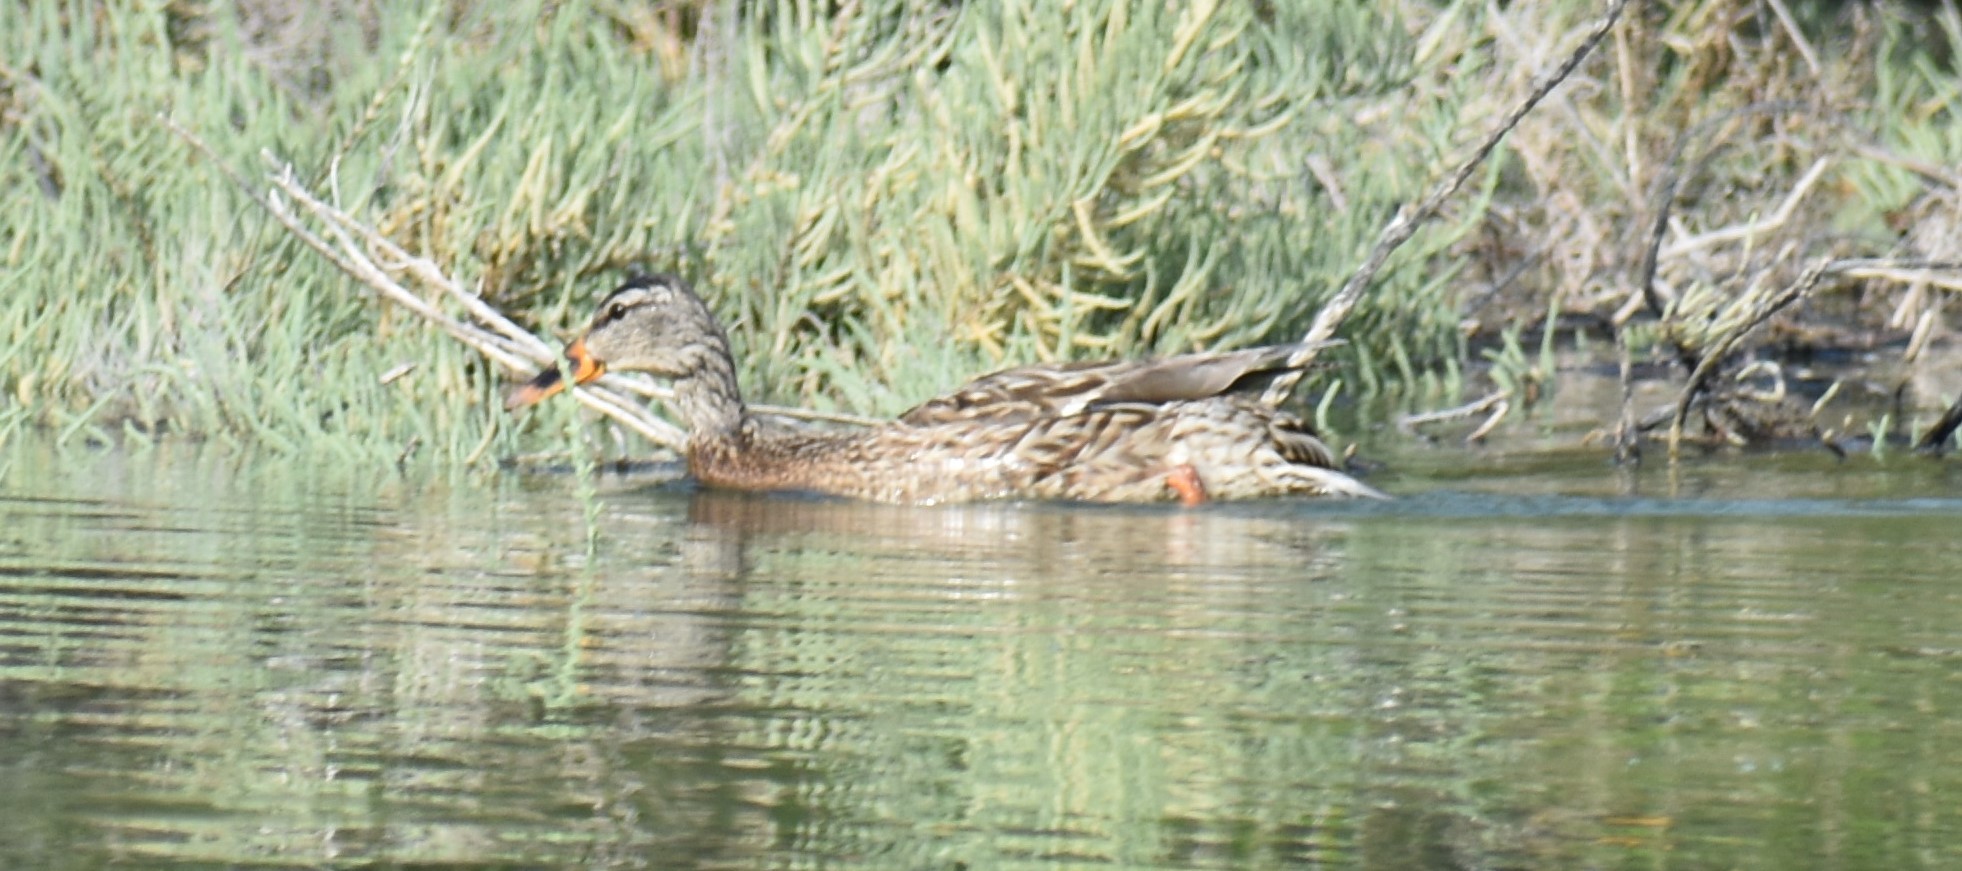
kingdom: Animalia
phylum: Chordata
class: Aves
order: Anseriformes
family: Anatidae
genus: Anas
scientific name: Anas platyrhynchos
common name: Mallard
